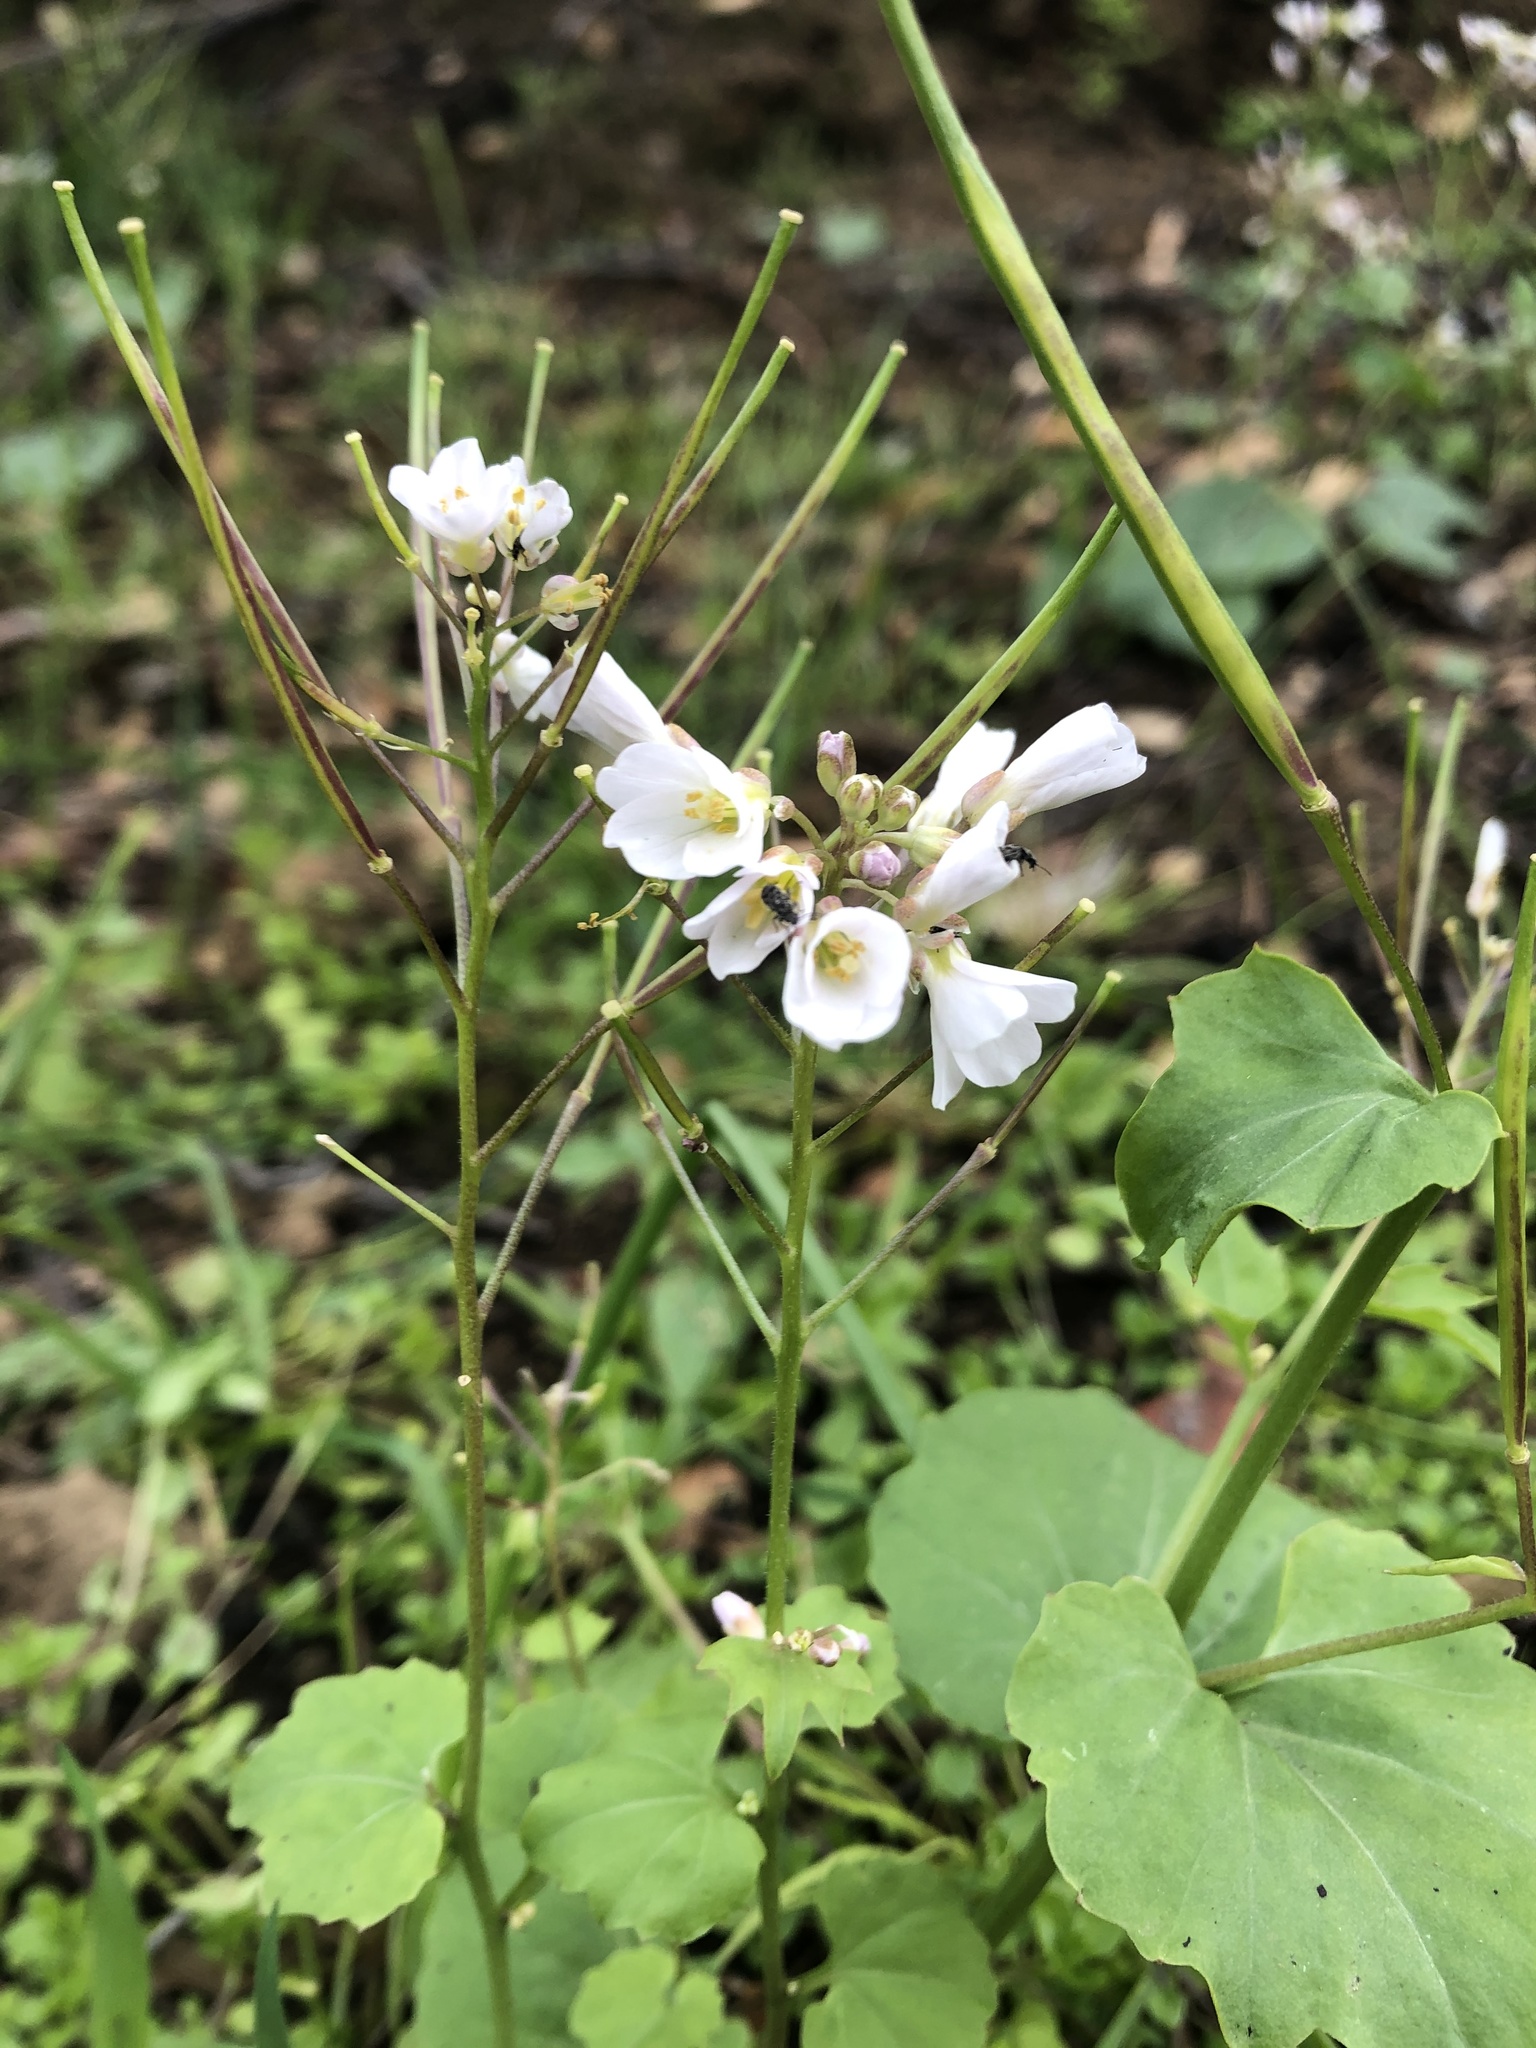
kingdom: Plantae
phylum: Tracheophyta
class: Magnoliopsida
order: Brassicales
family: Brassicaceae
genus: Cardamine
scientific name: Cardamine californica
